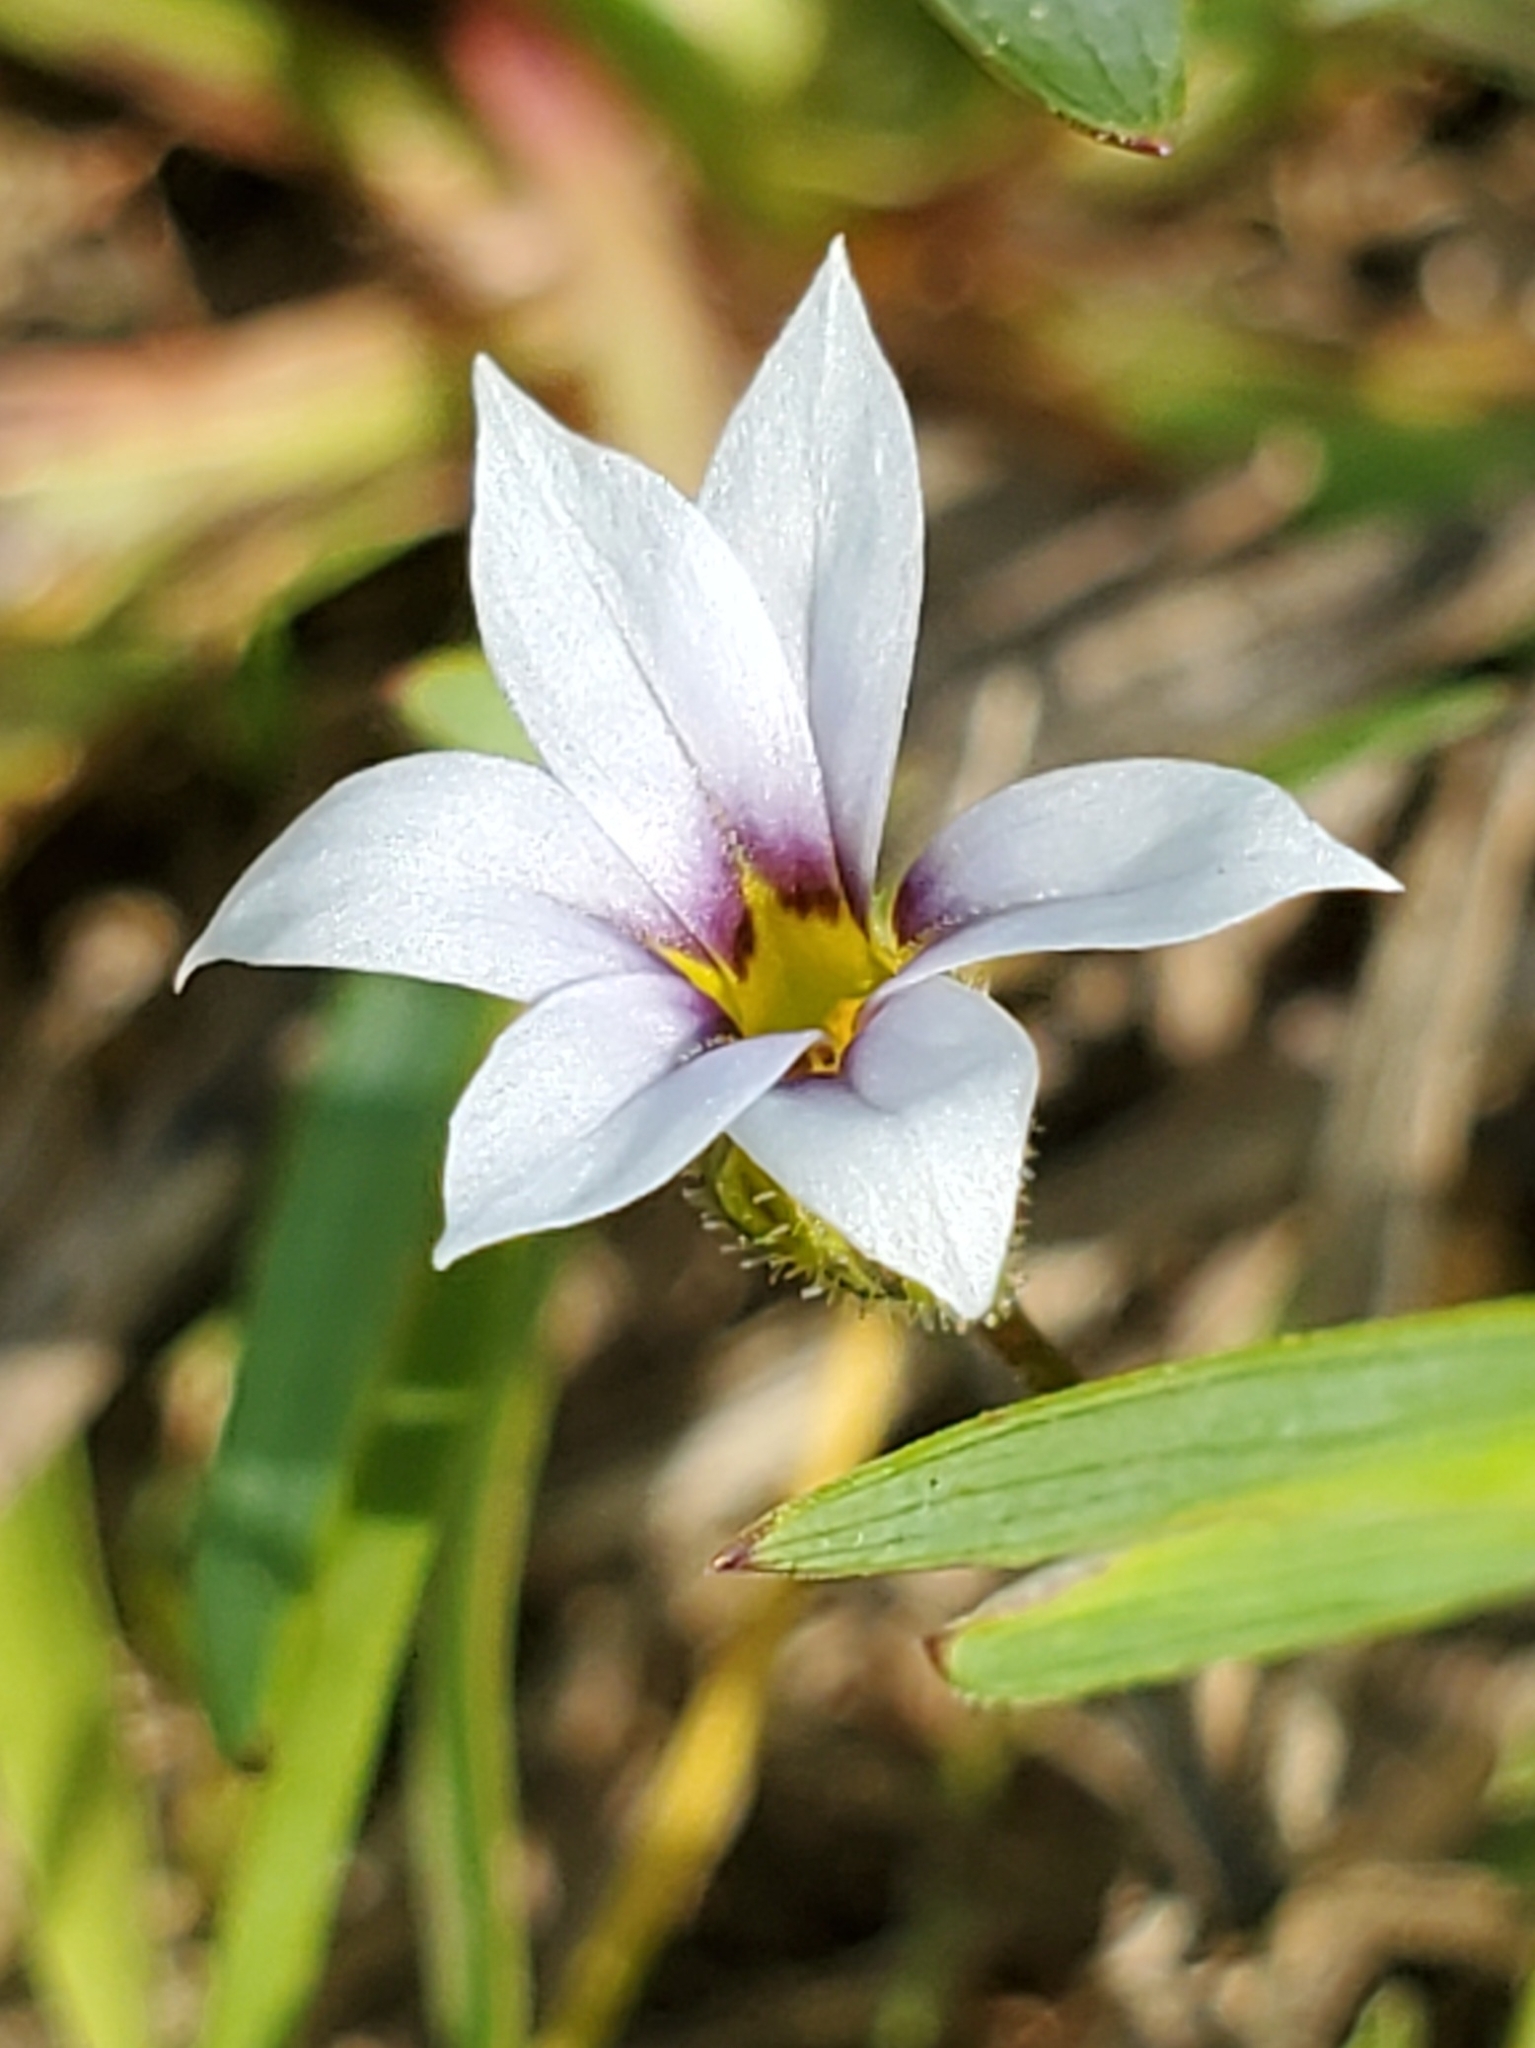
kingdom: Plantae
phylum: Tracheophyta
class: Liliopsida
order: Asparagales
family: Iridaceae
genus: Sisyrinchium
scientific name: Sisyrinchium micranthum
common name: Bermuda pigroot
